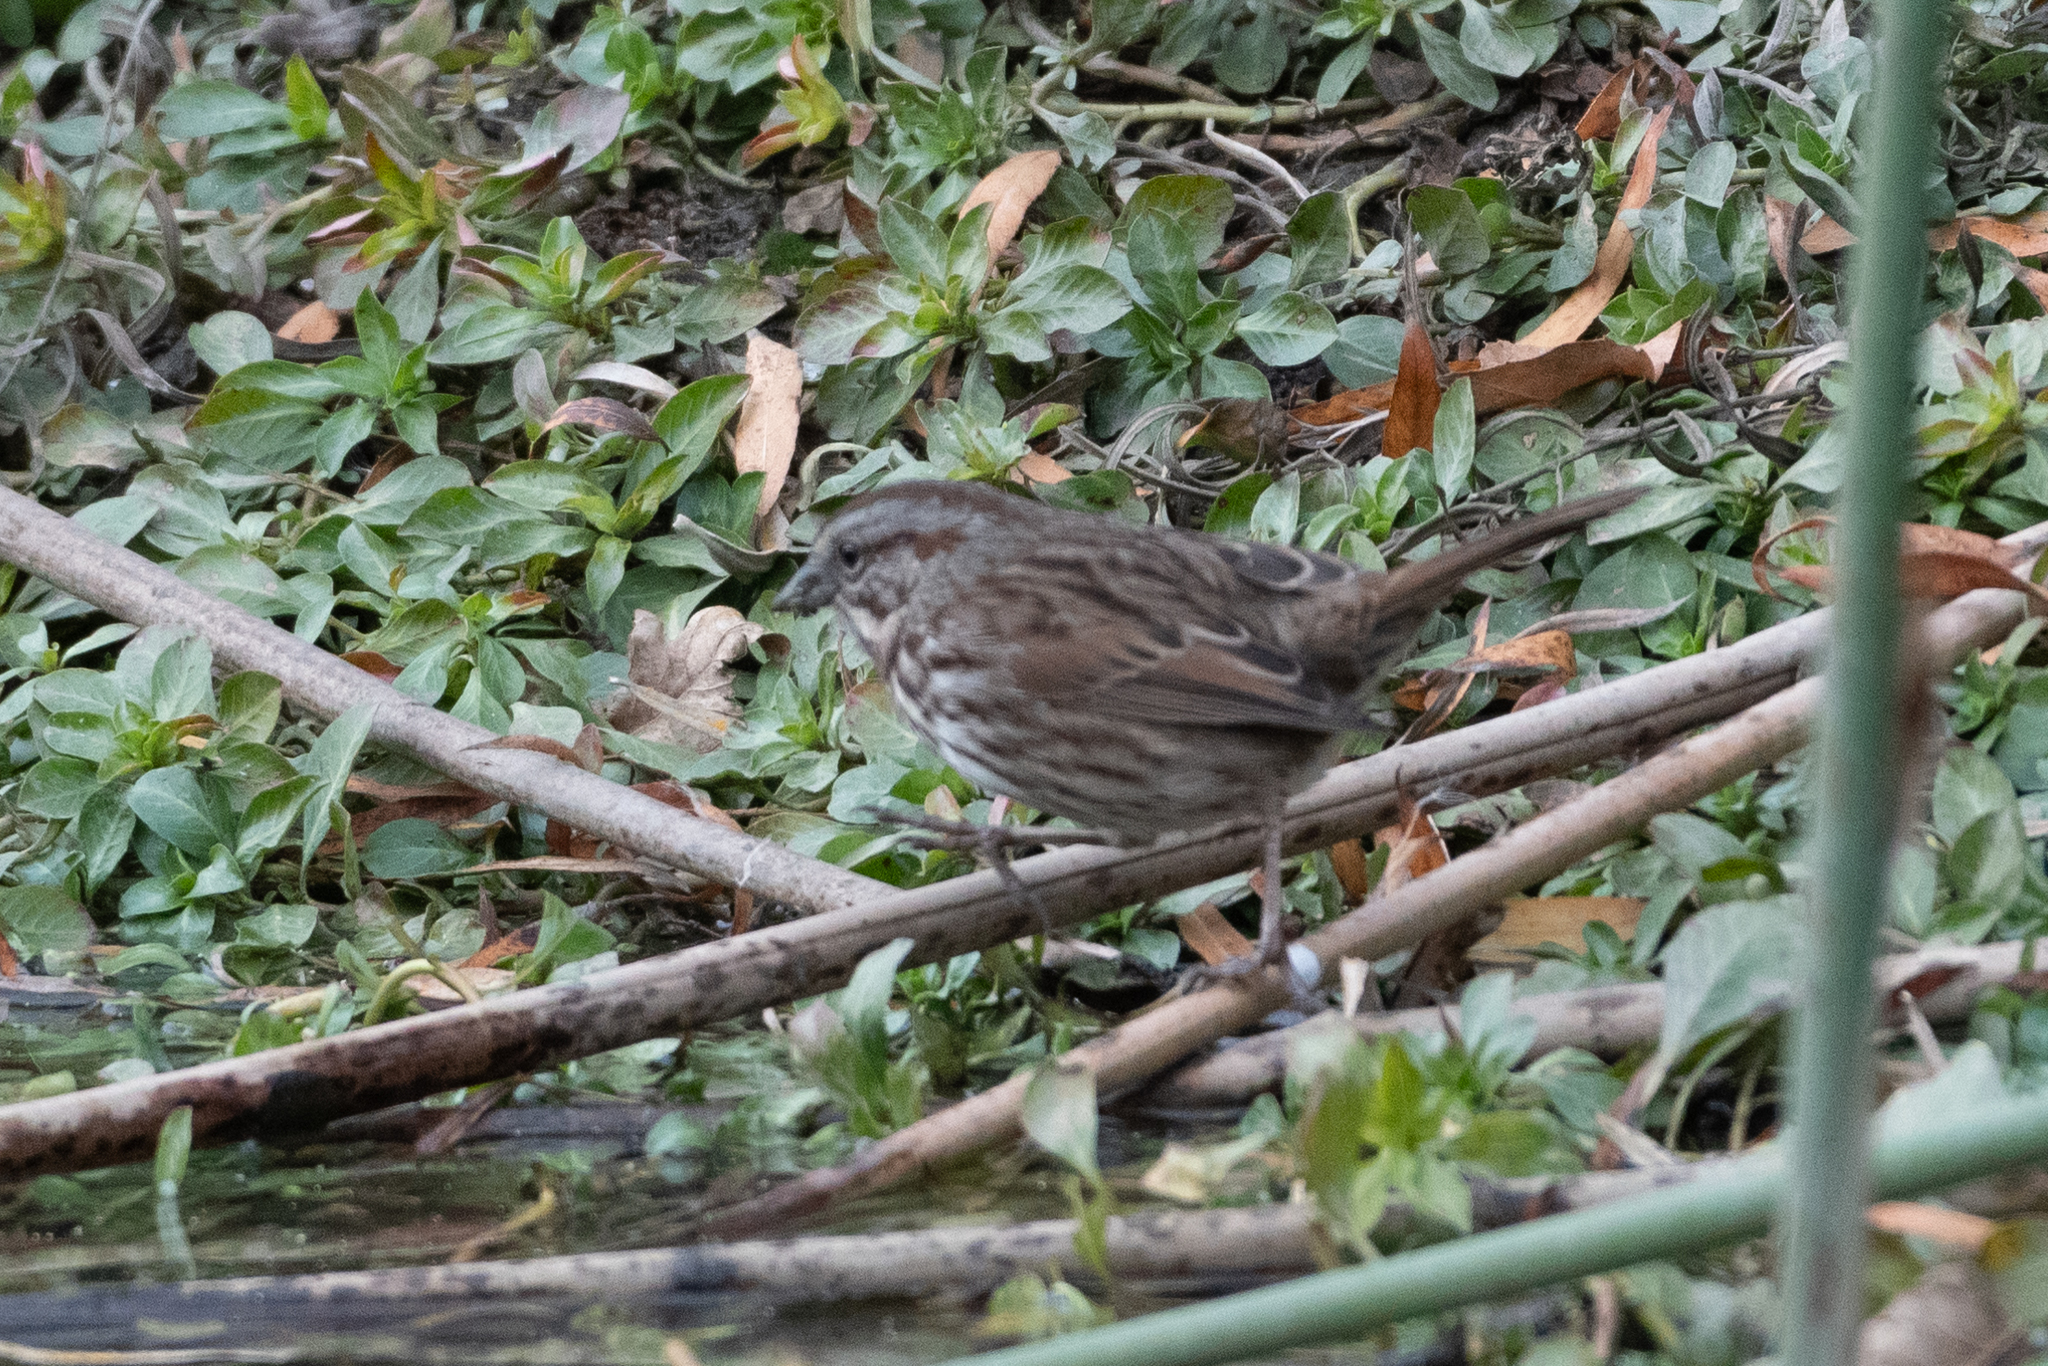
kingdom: Animalia
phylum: Chordata
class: Aves
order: Passeriformes
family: Passerellidae
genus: Melospiza
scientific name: Melospiza melodia
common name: Song sparrow
